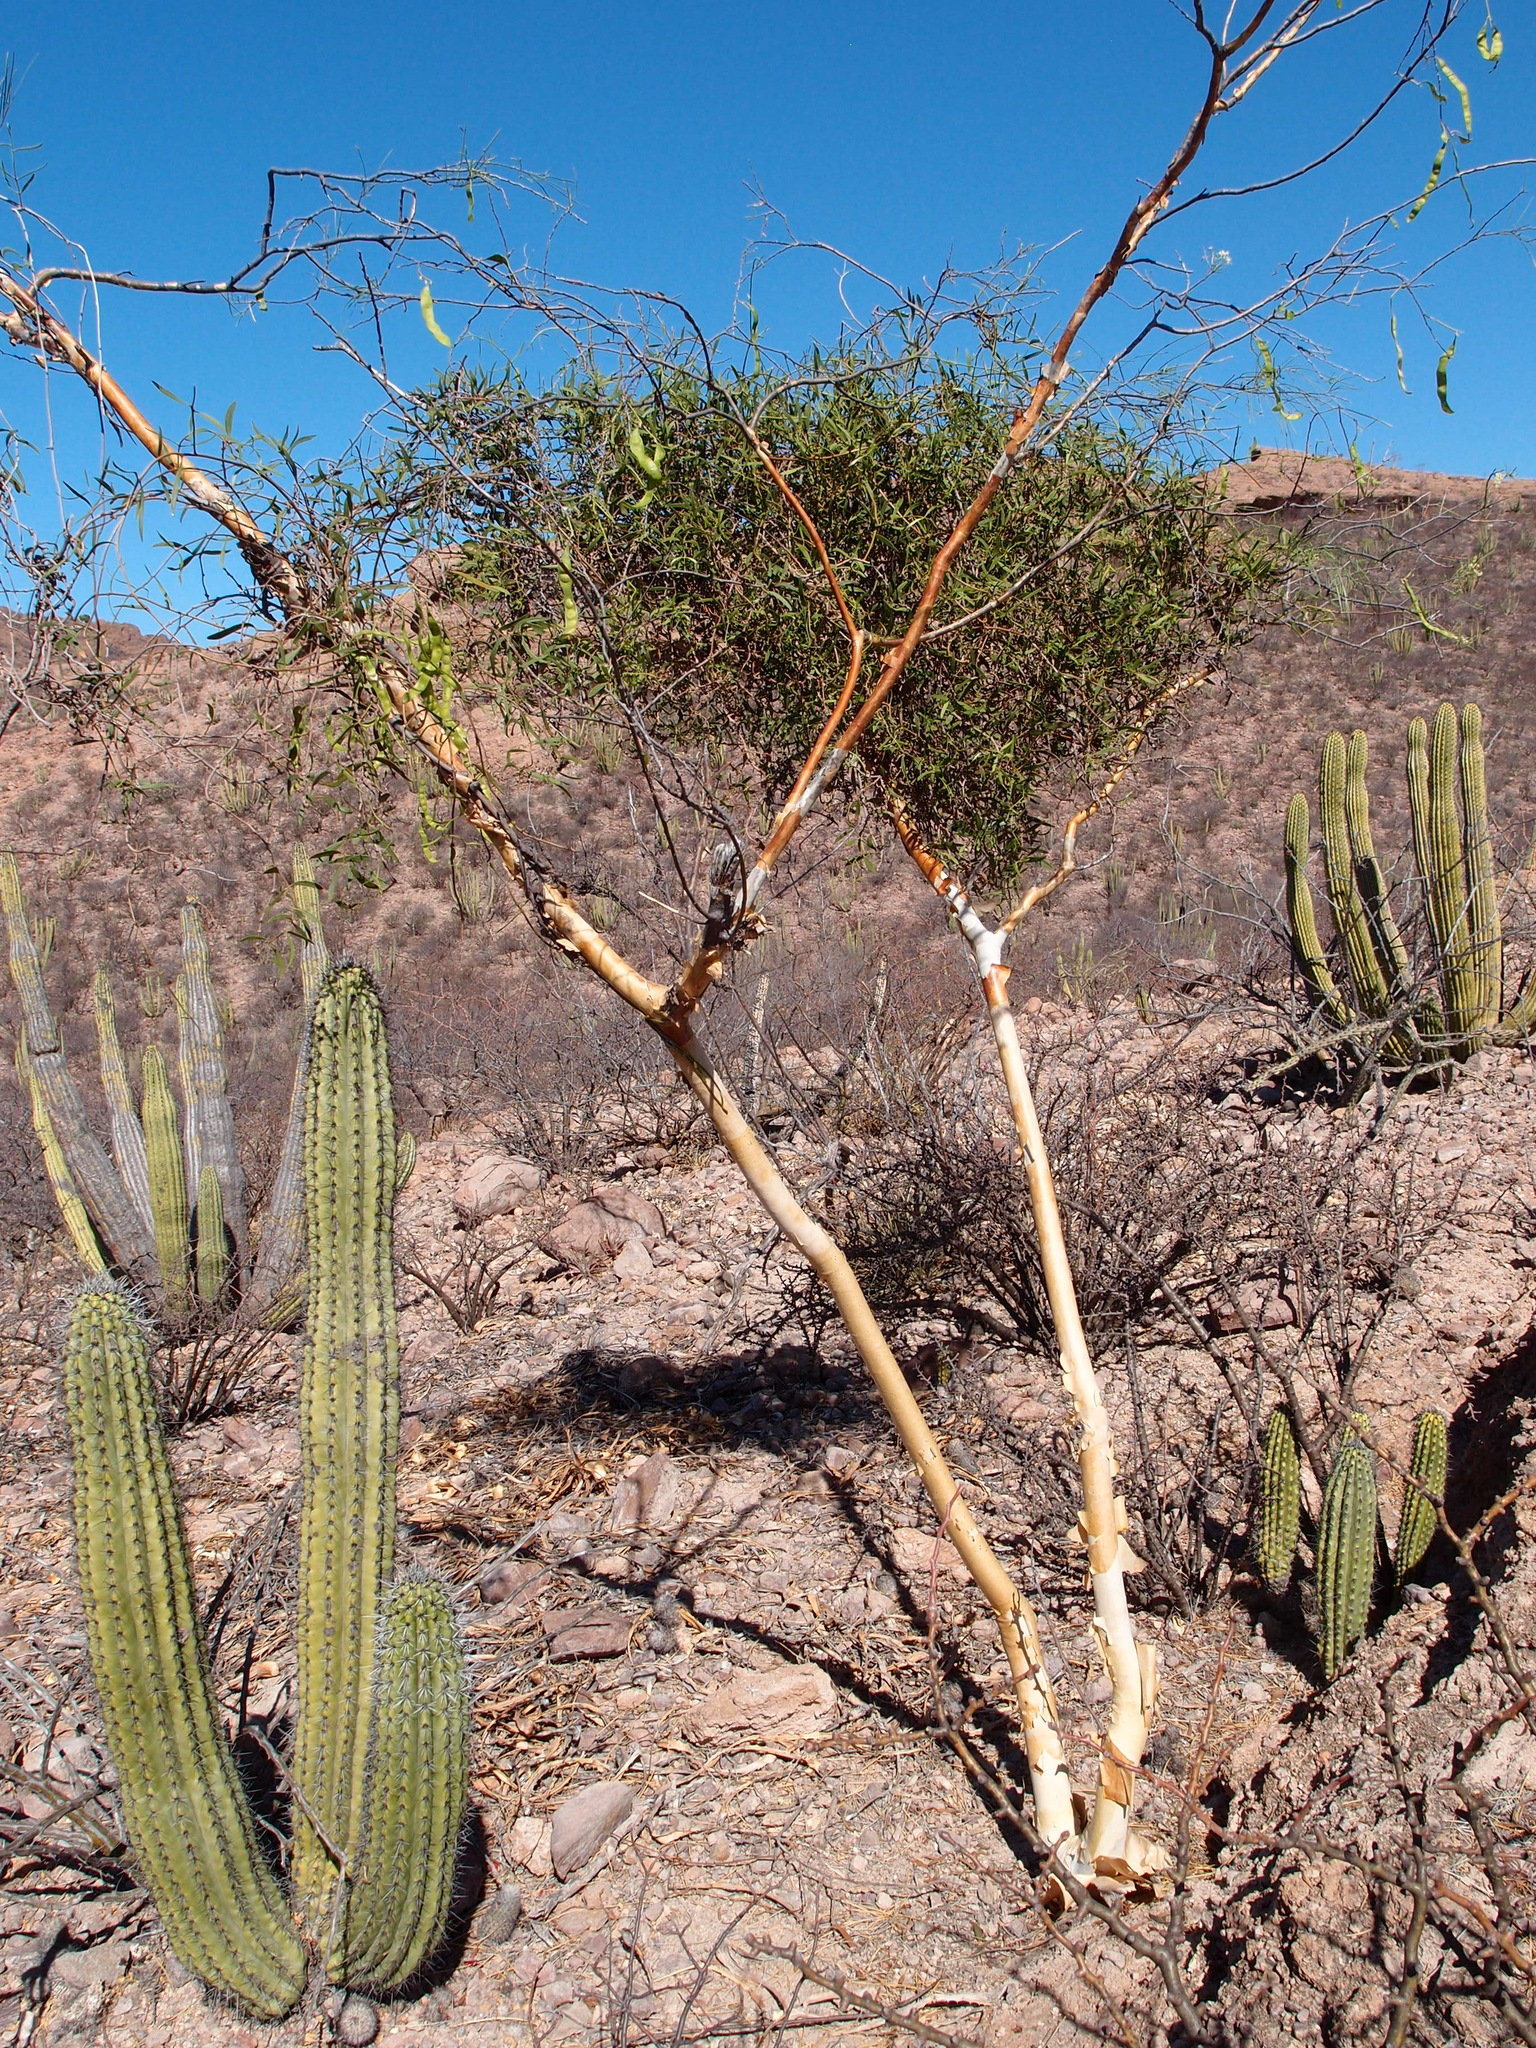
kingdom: Plantae
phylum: Tracheophyta
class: Magnoliopsida
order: Fabales
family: Fabaceae
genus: Mariosousa
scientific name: Mariosousa heterophylla
